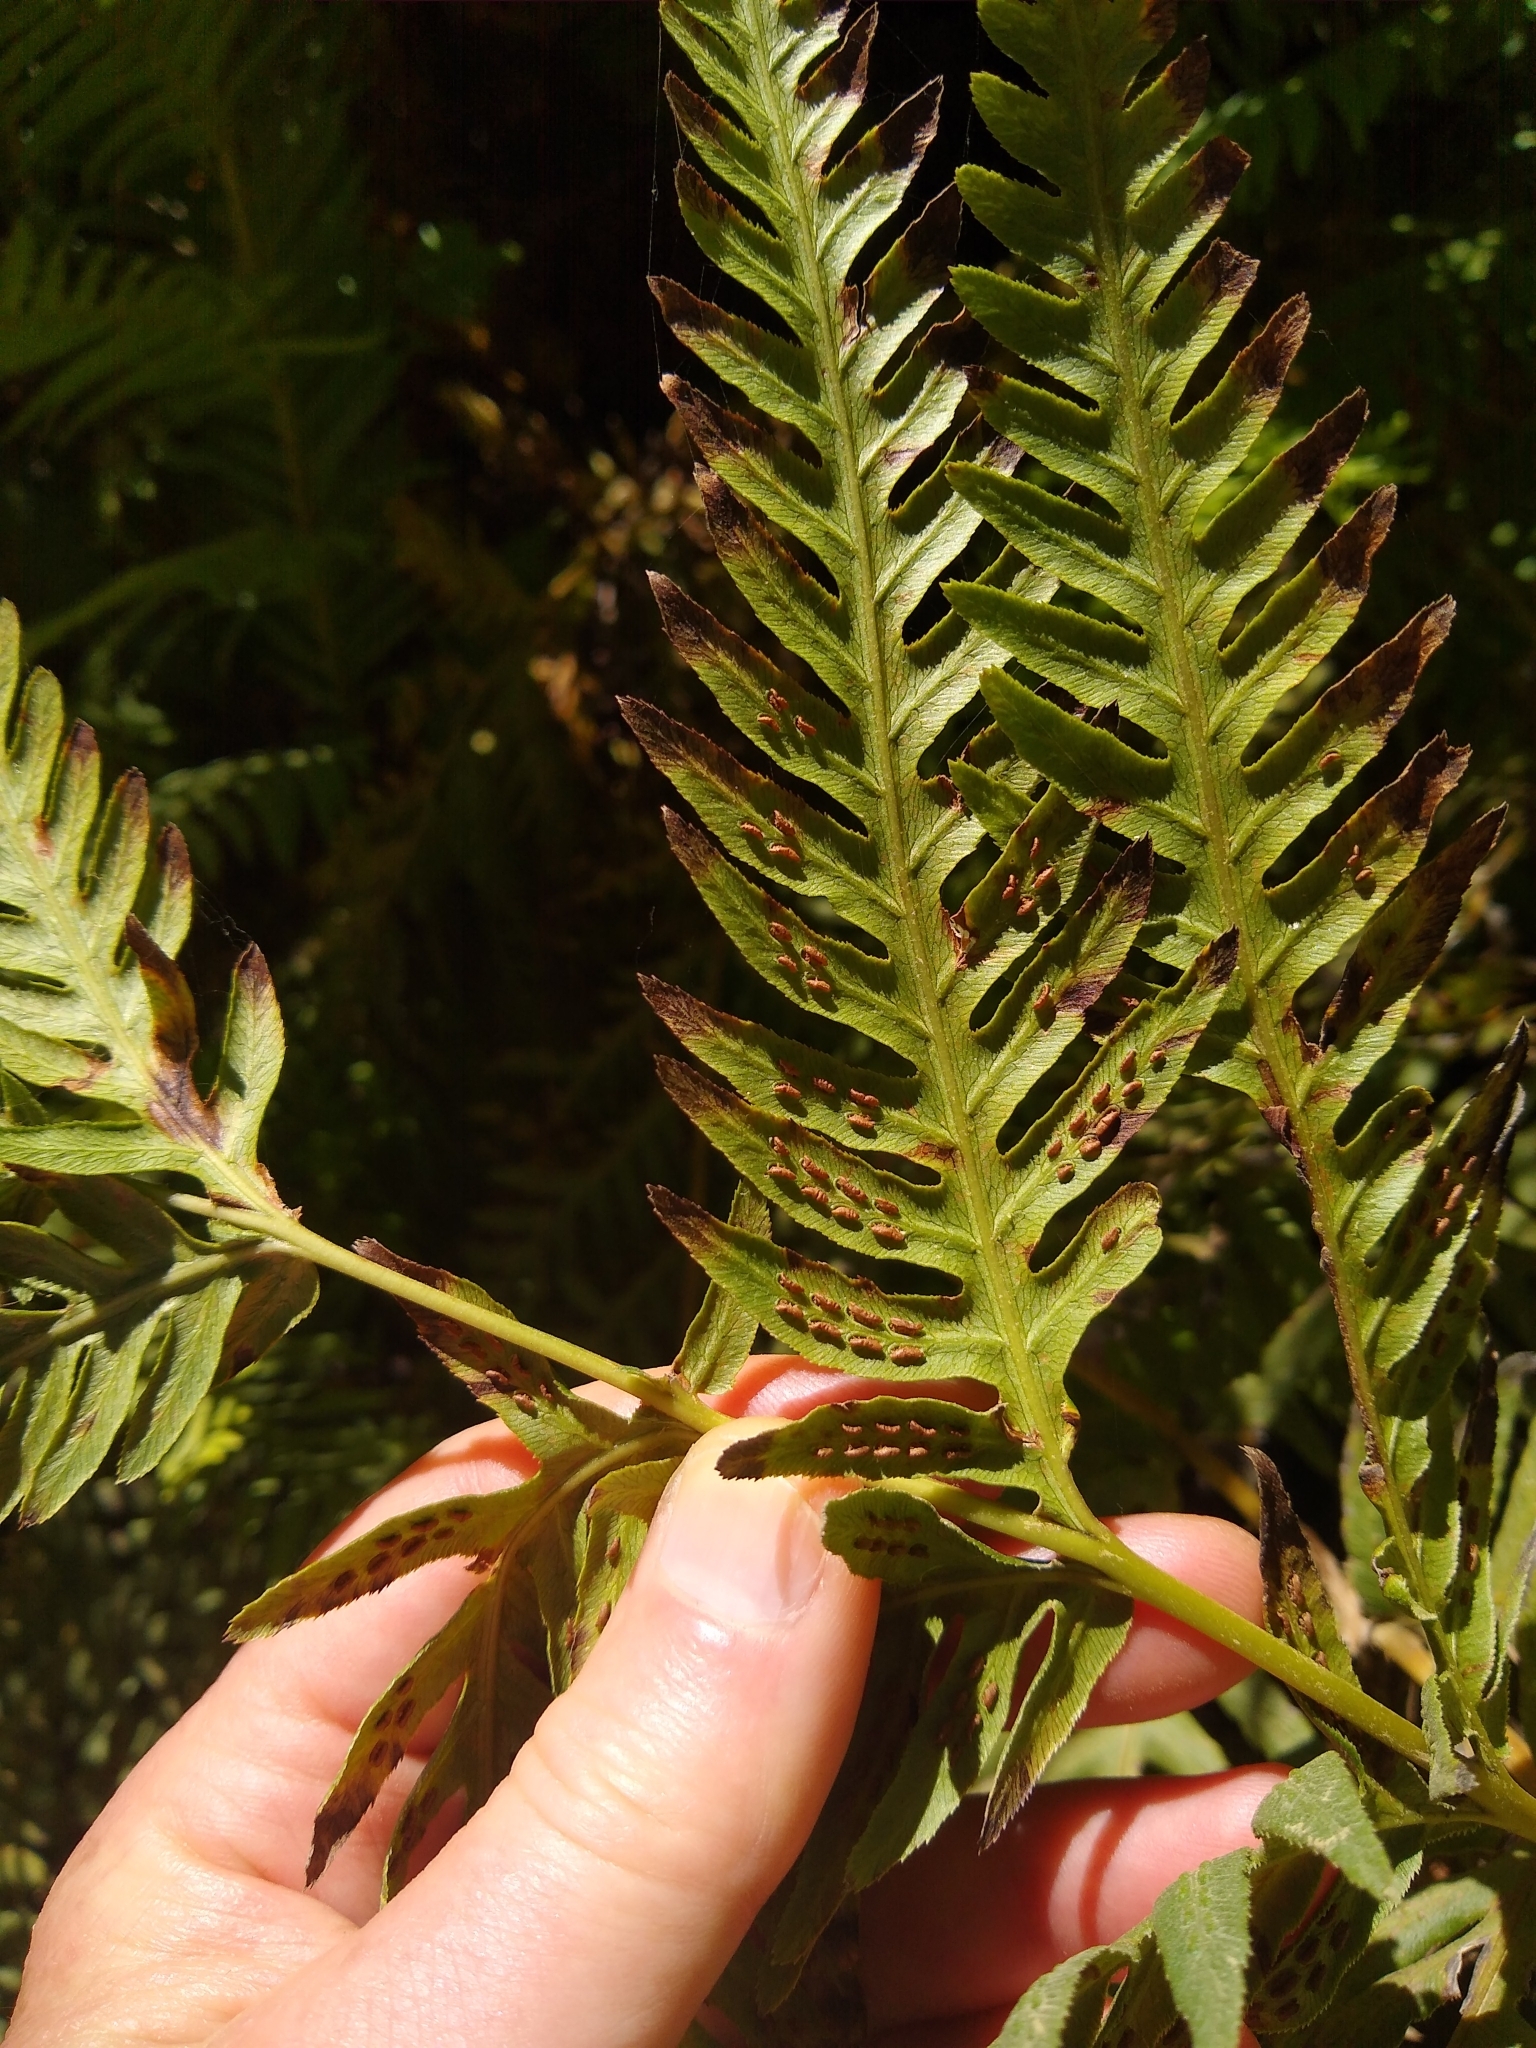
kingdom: Plantae
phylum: Tracheophyta
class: Polypodiopsida
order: Polypodiales
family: Blechnaceae
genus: Woodwardia
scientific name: Woodwardia fimbriata
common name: Giant chain fern
